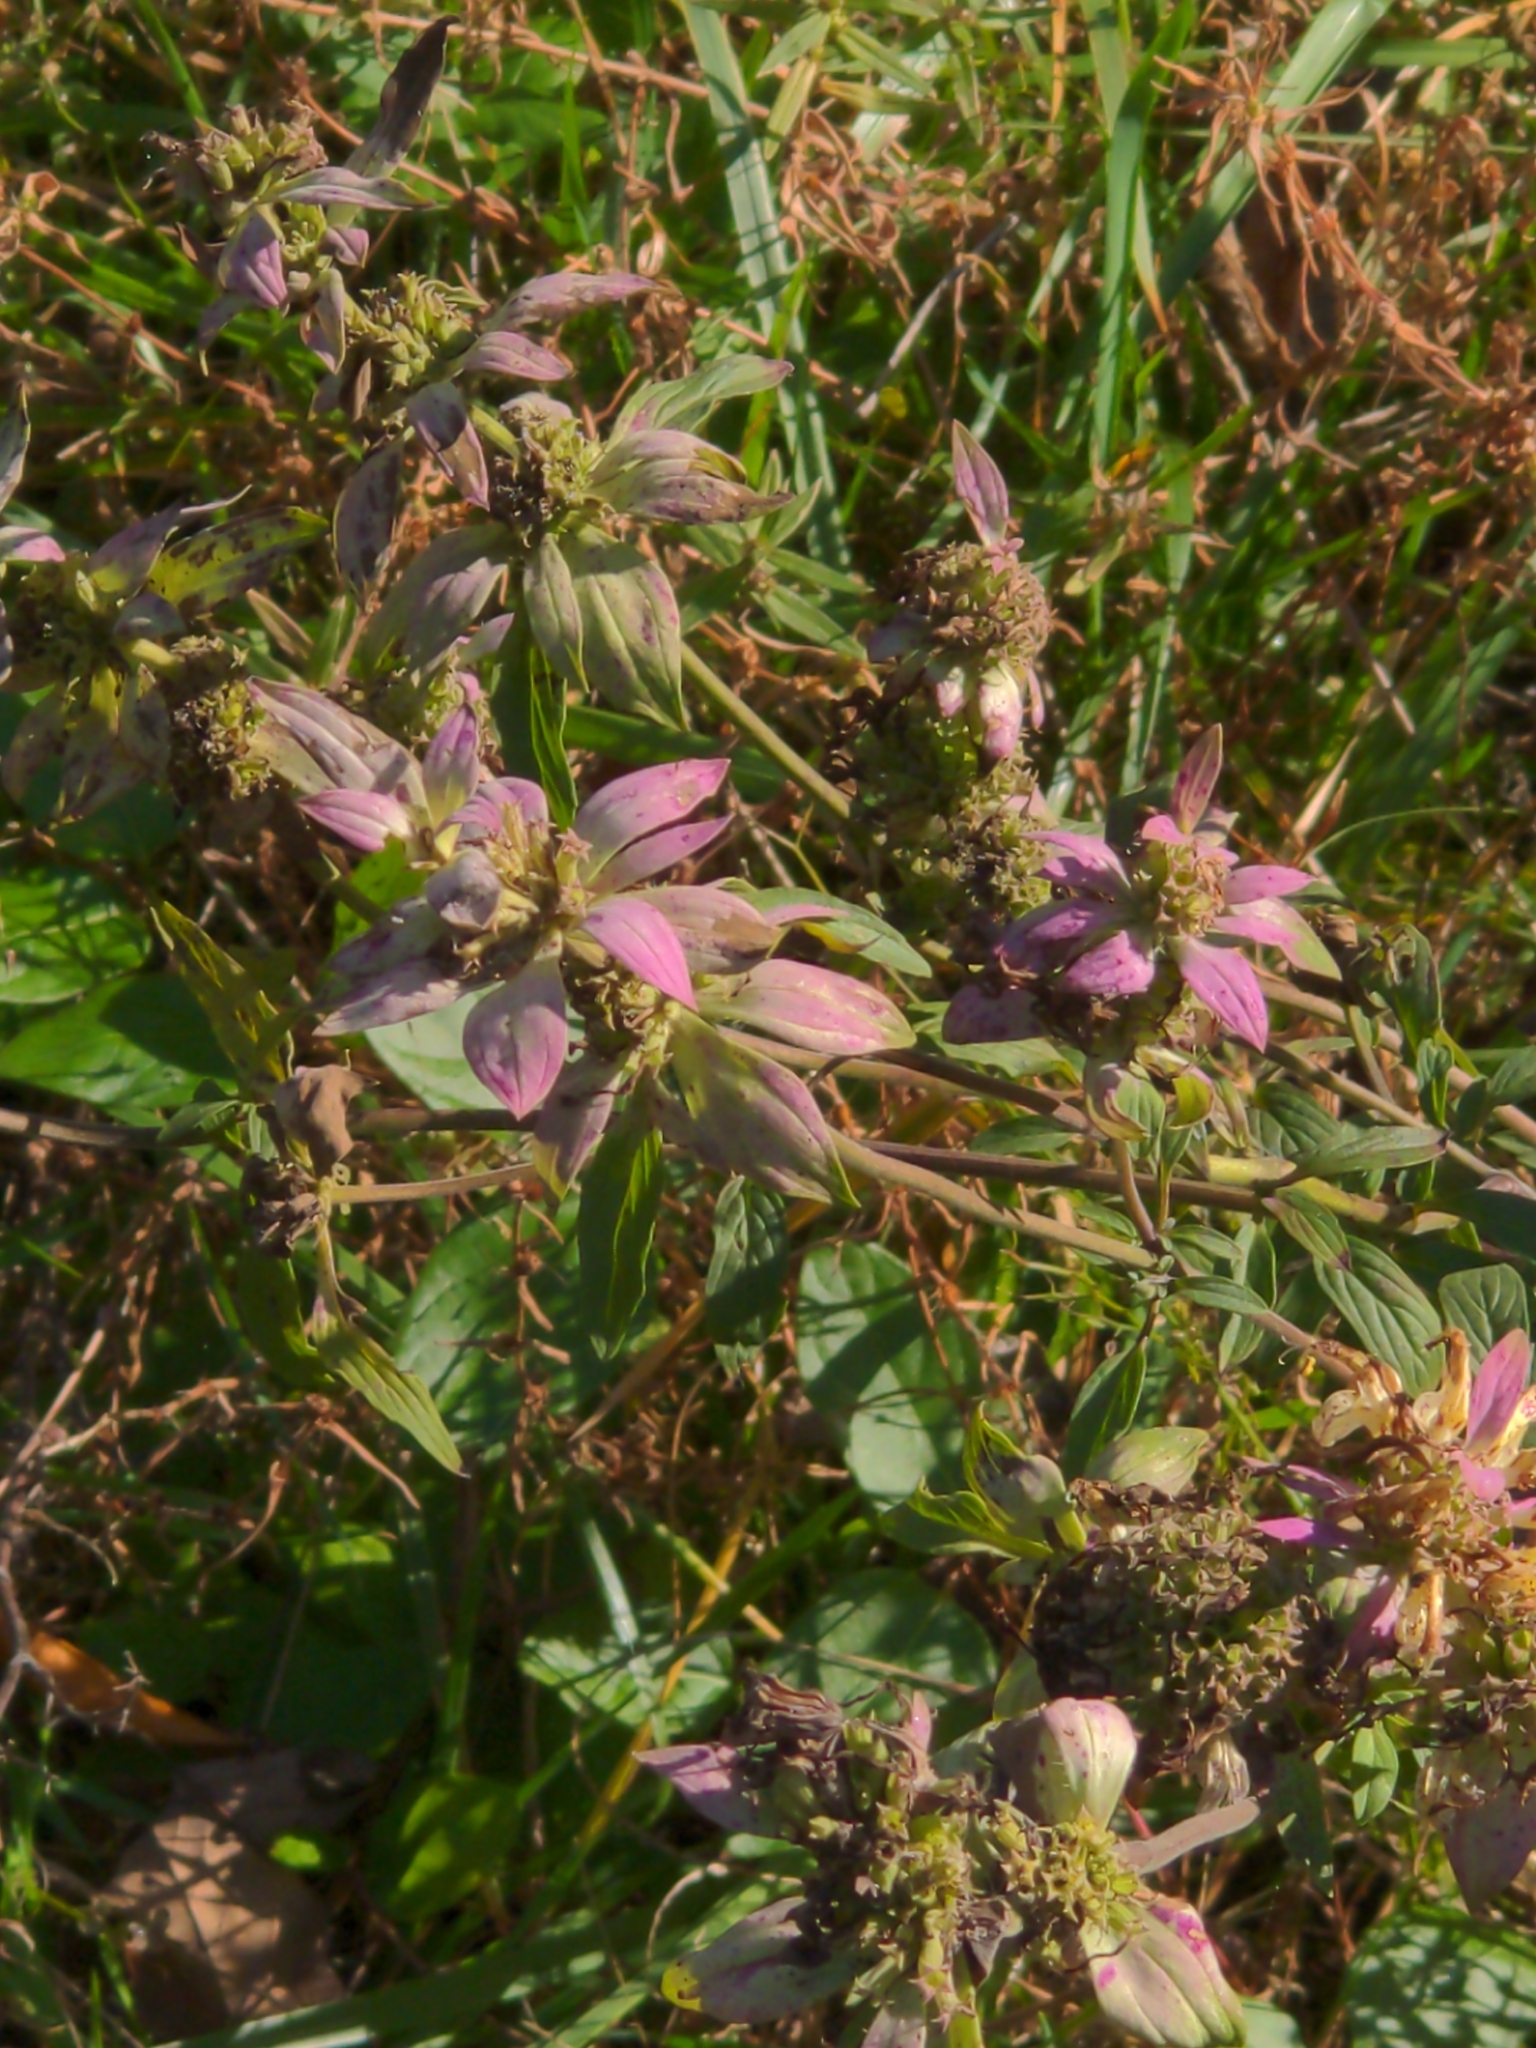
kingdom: Plantae
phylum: Tracheophyta
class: Magnoliopsida
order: Lamiales
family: Lamiaceae
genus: Monarda
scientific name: Monarda punctata
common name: Dotted monarda
